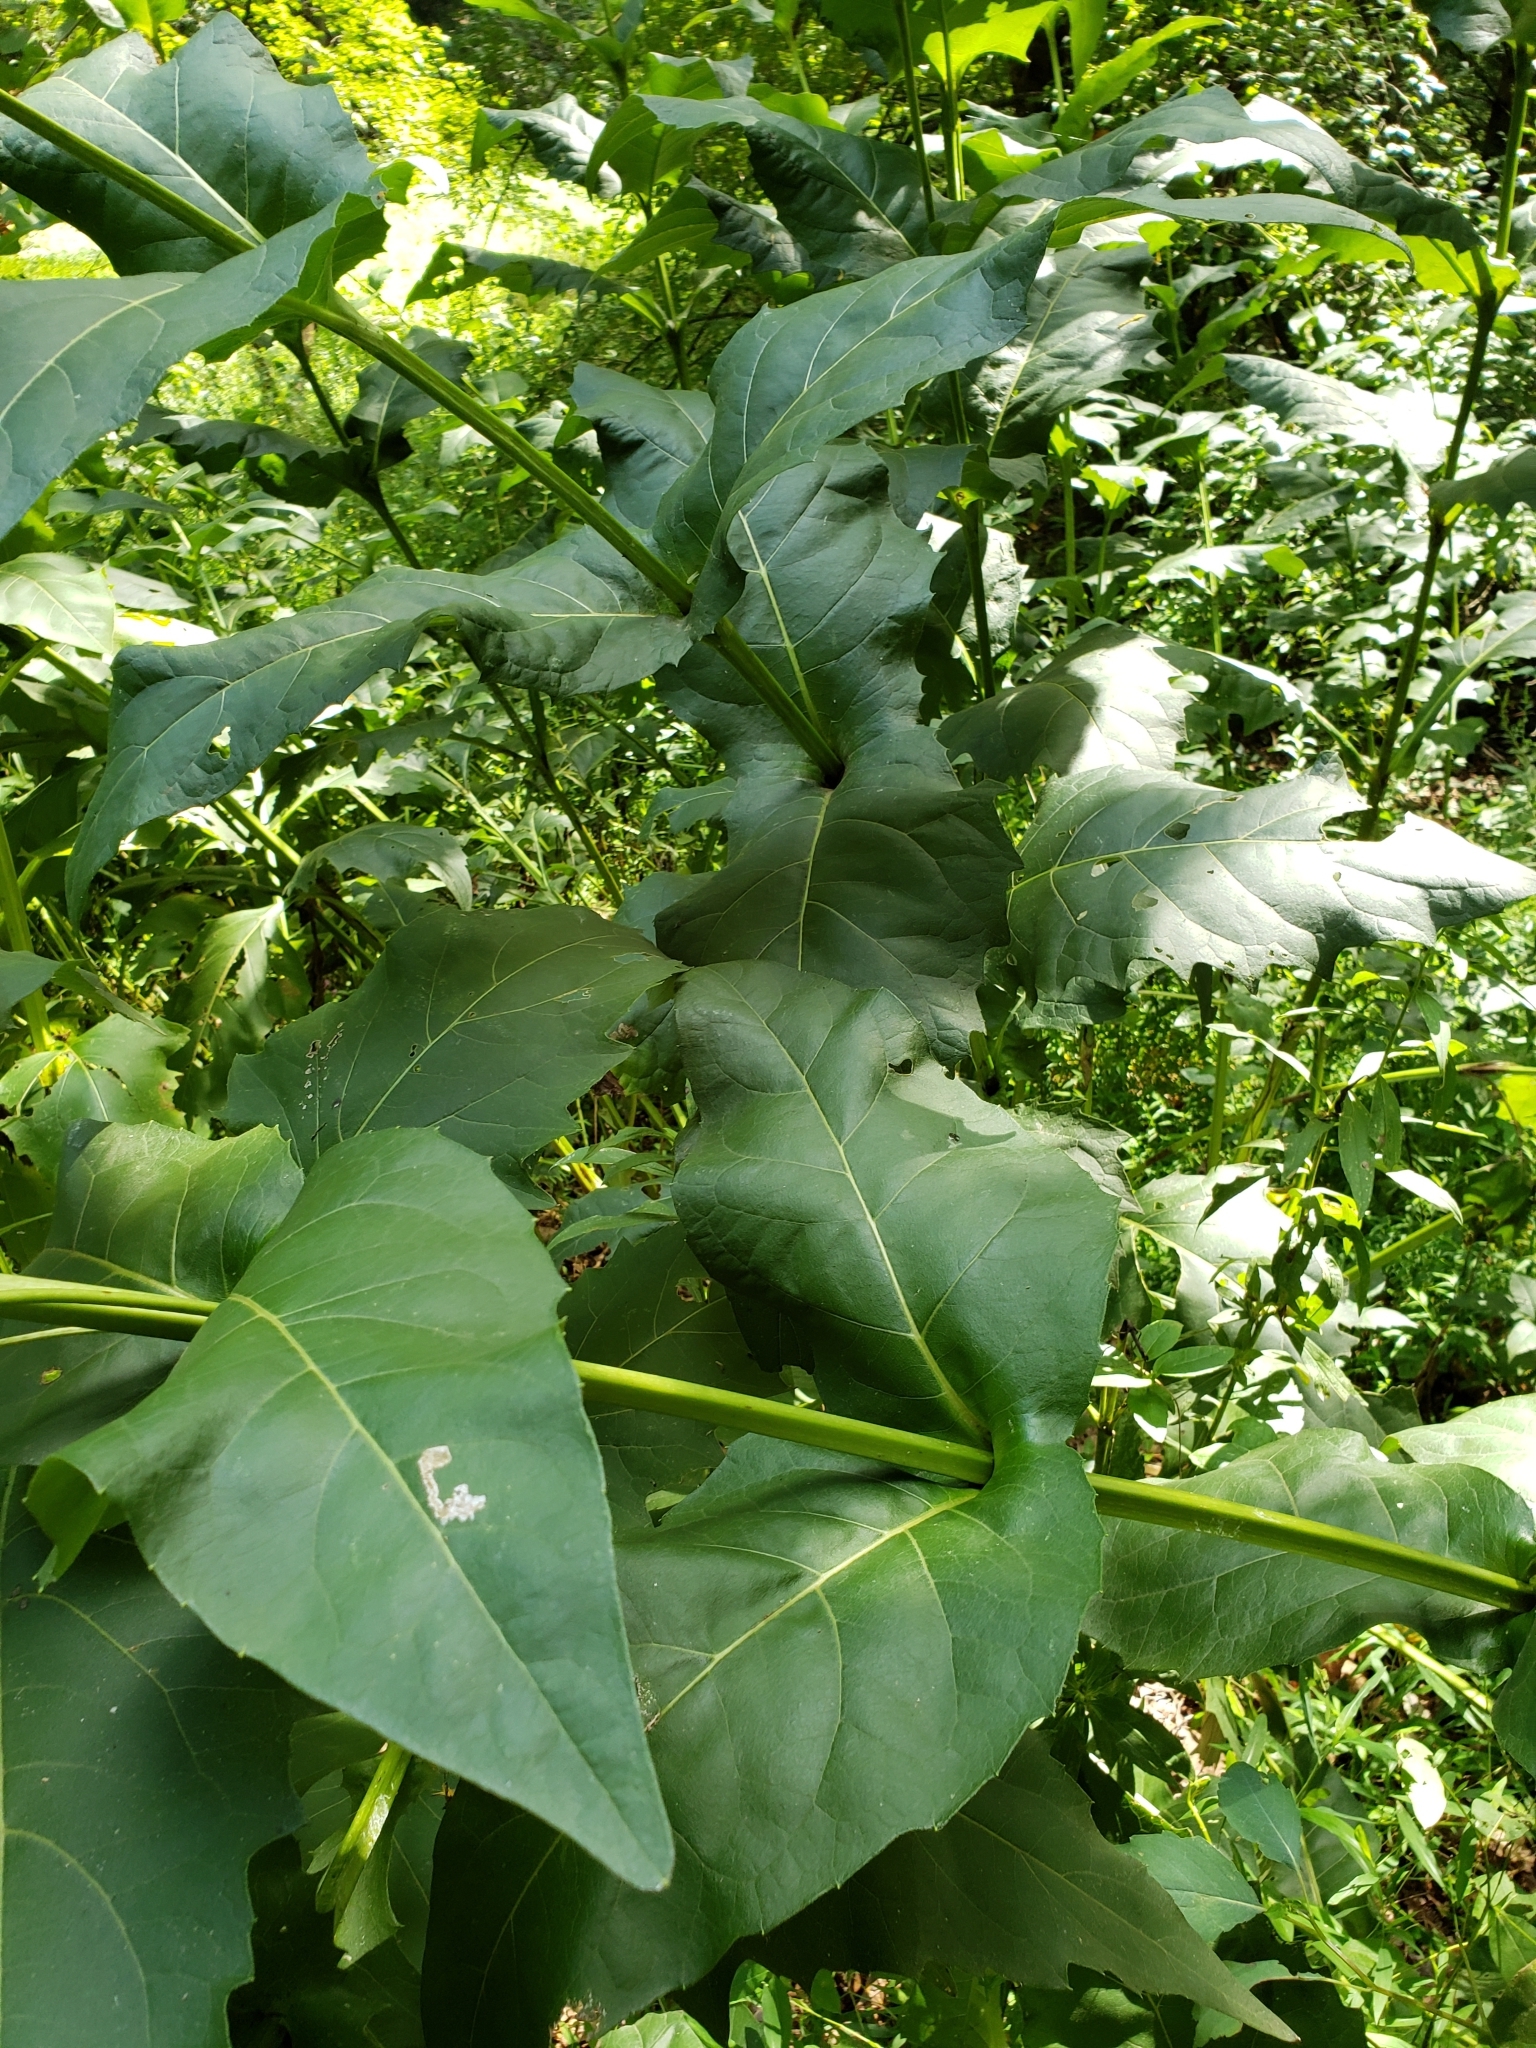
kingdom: Plantae
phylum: Tracheophyta
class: Magnoliopsida
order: Asterales
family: Asteraceae
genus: Silphium
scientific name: Silphium perfoliatum
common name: Cup-plant
